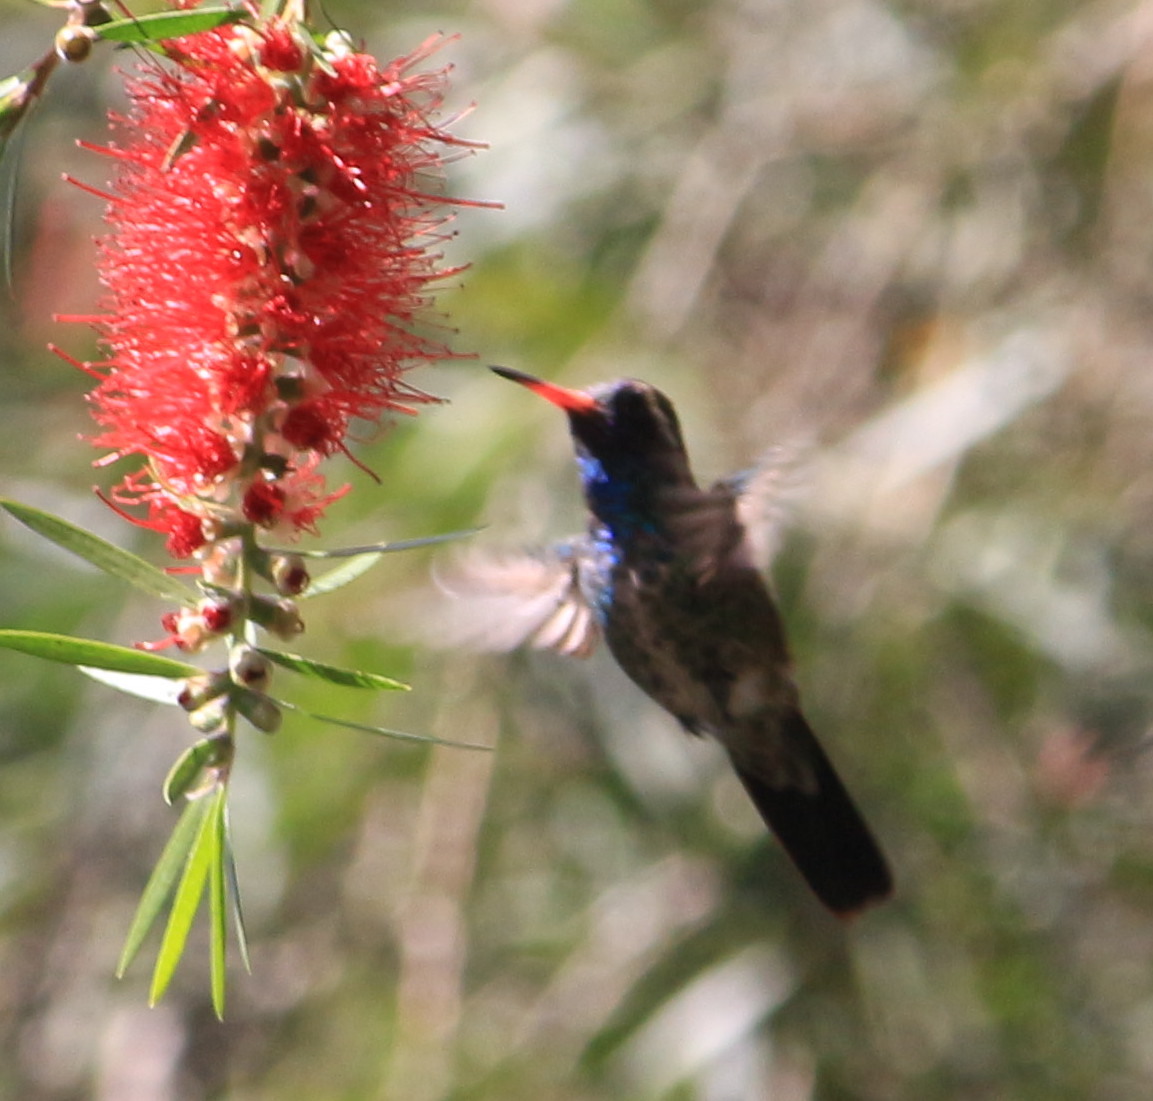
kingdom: Animalia
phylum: Chordata
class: Aves
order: Apodiformes
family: Trochilidae
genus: Basilinna
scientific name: Basilinna leucotis
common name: White-eared hummingbird
